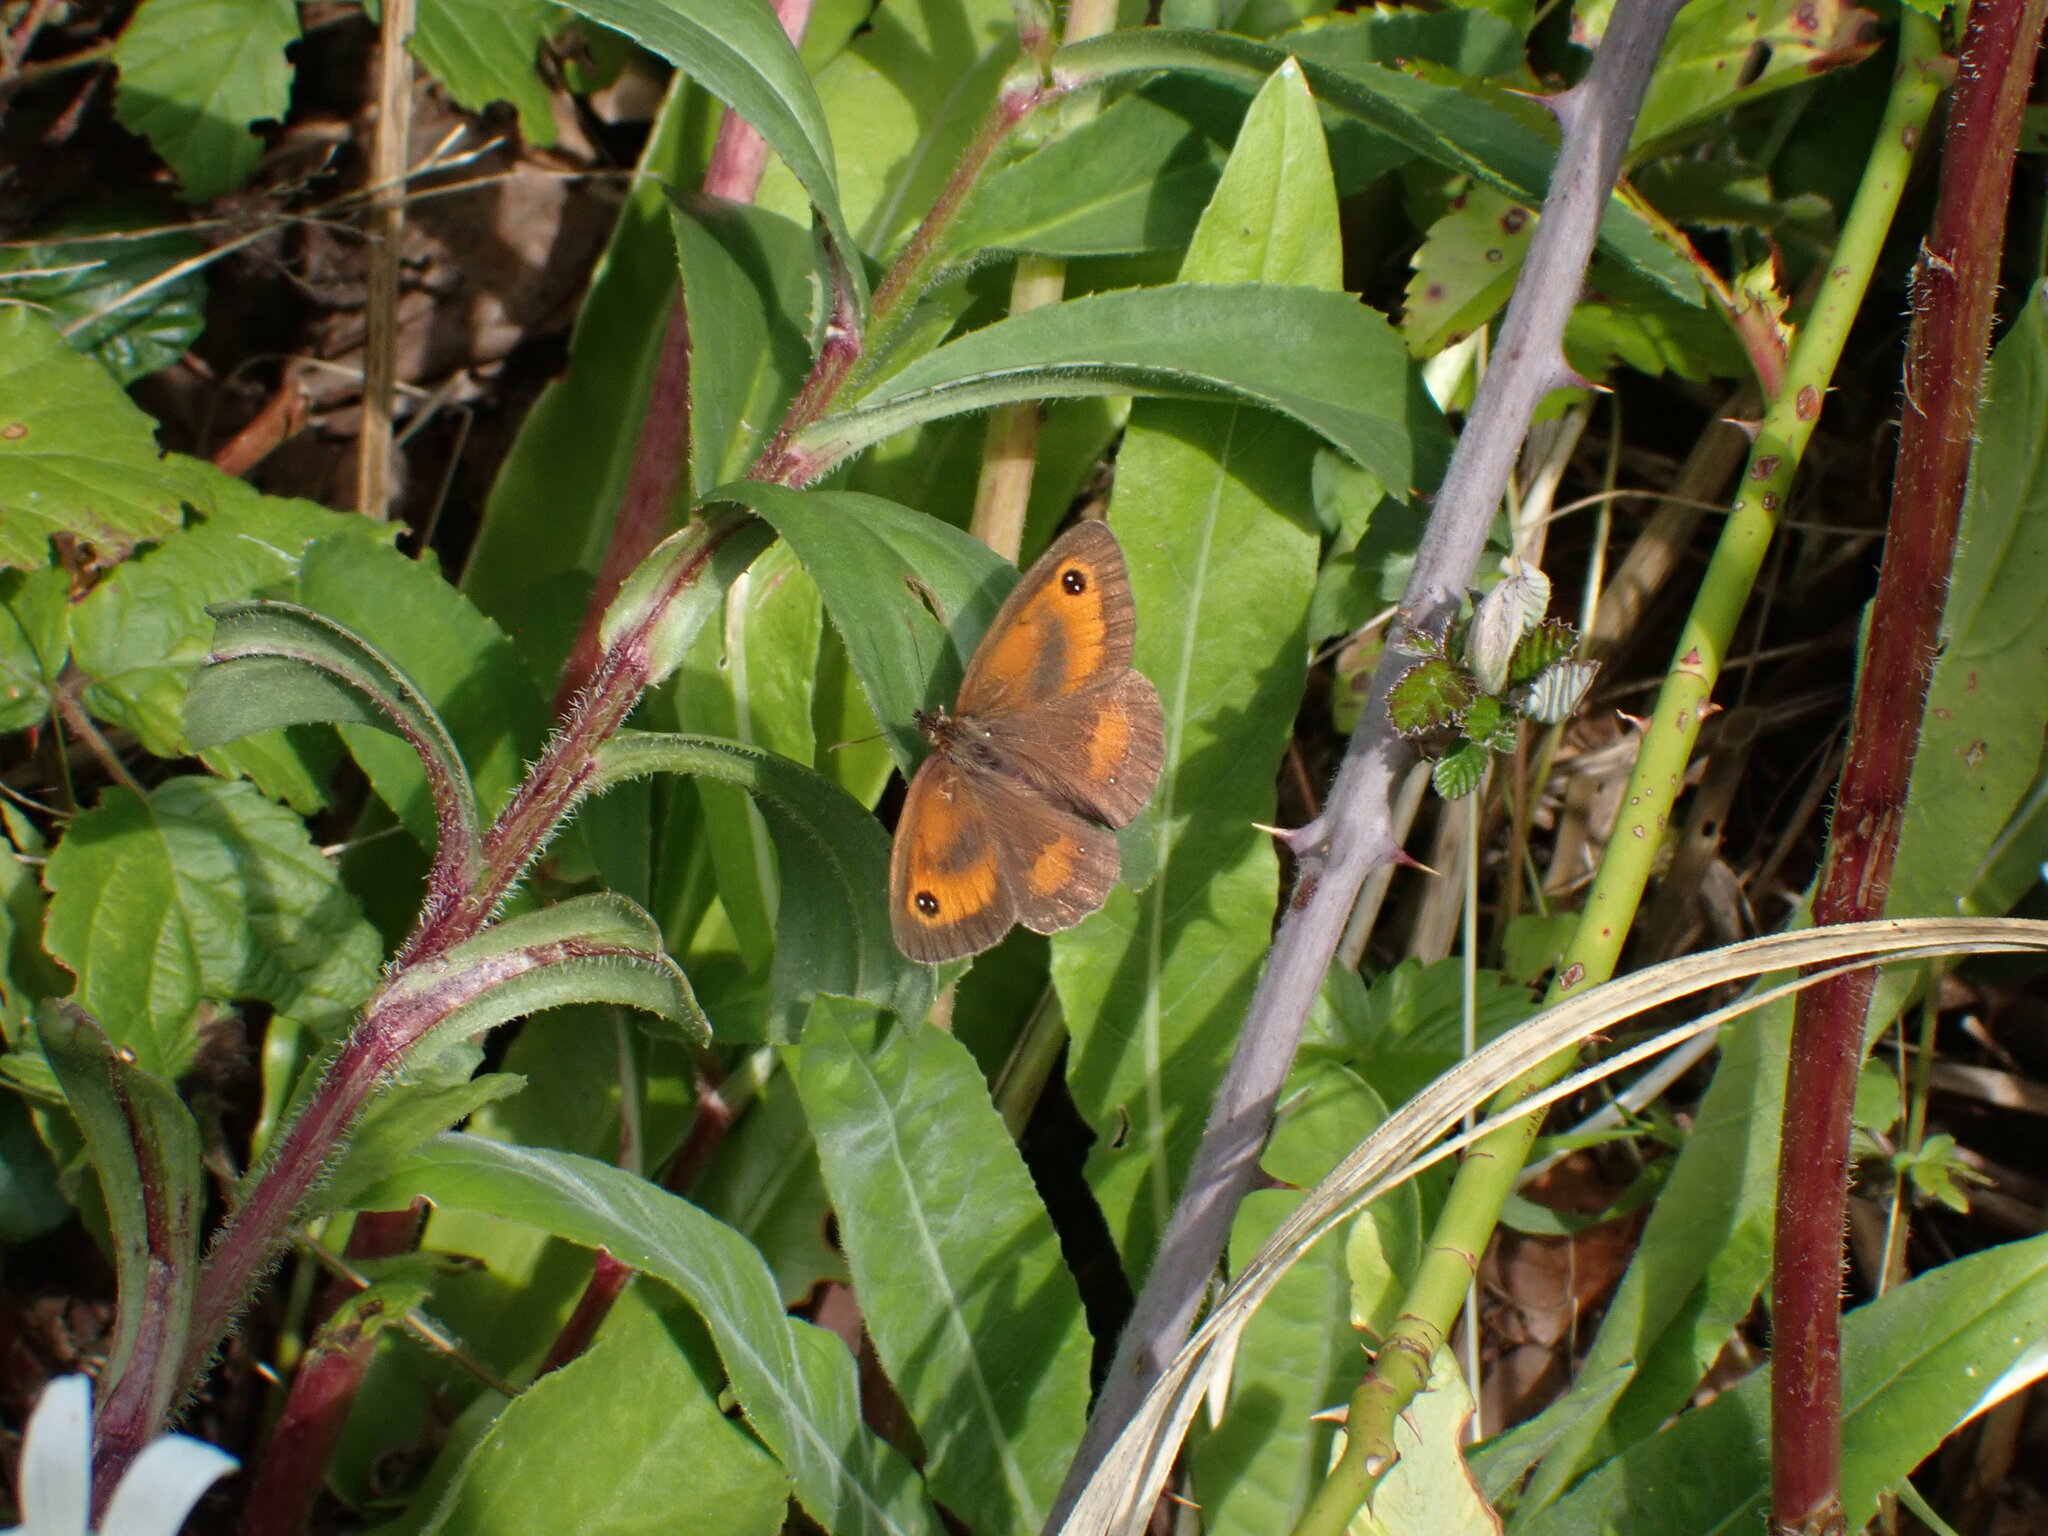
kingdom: Animalia
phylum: Arthropoda
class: Insecta
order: Lepidoptera
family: Nymphalidae
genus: Pyronia
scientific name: Pyronia tithonus
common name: Gatekeeper
